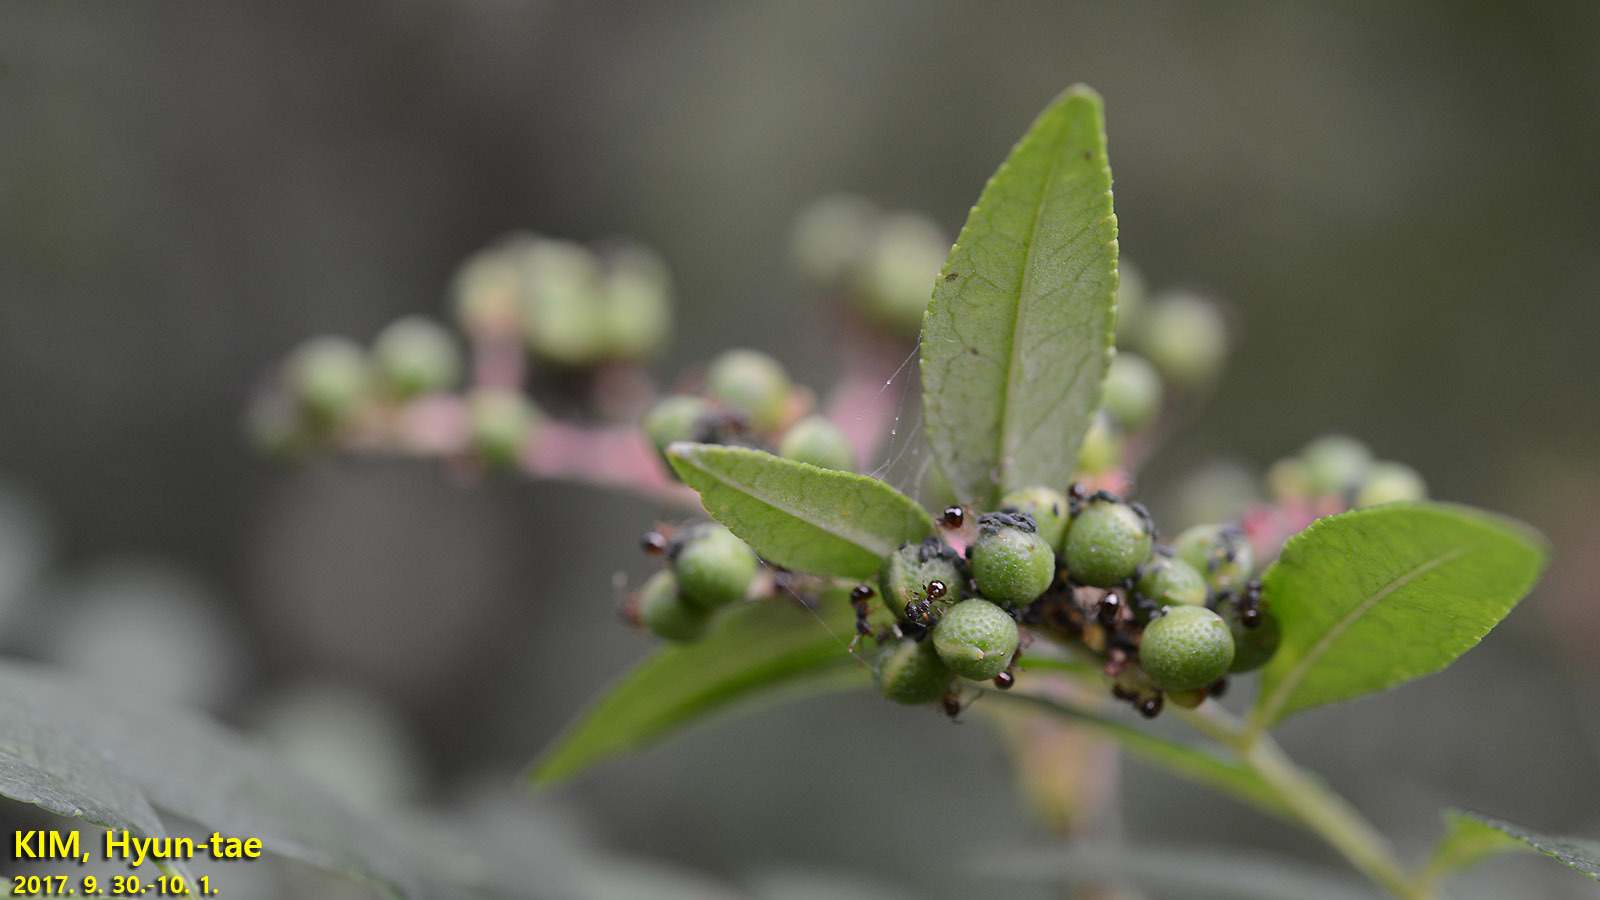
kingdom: Animalia
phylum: Arthropoda
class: Insecta
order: Hymenoptera
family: Formicidae
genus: Pristomyrmex
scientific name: Pristomyrmex punctatus
